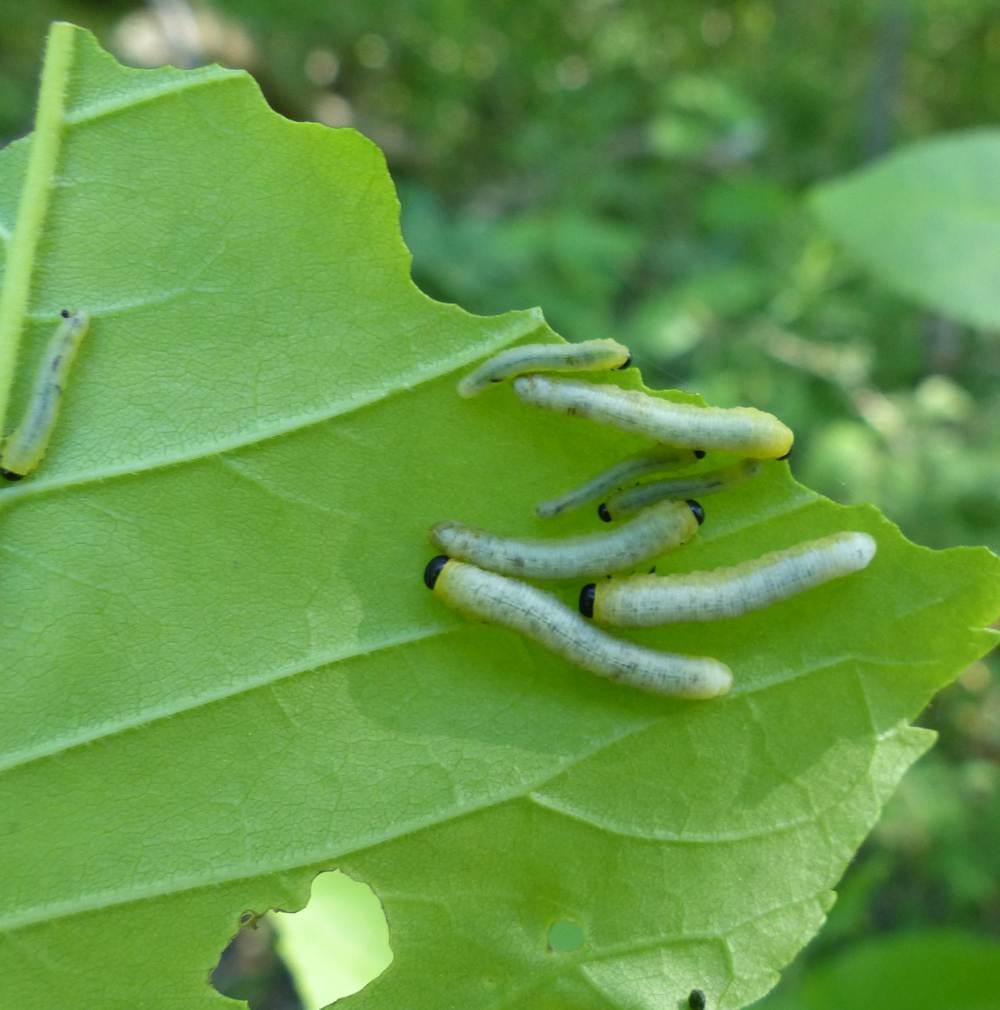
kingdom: Animalia
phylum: Arthropoda
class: Insecta
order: Hymenoptera
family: Tenthredinidae
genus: Tethida
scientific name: Tethida barda
